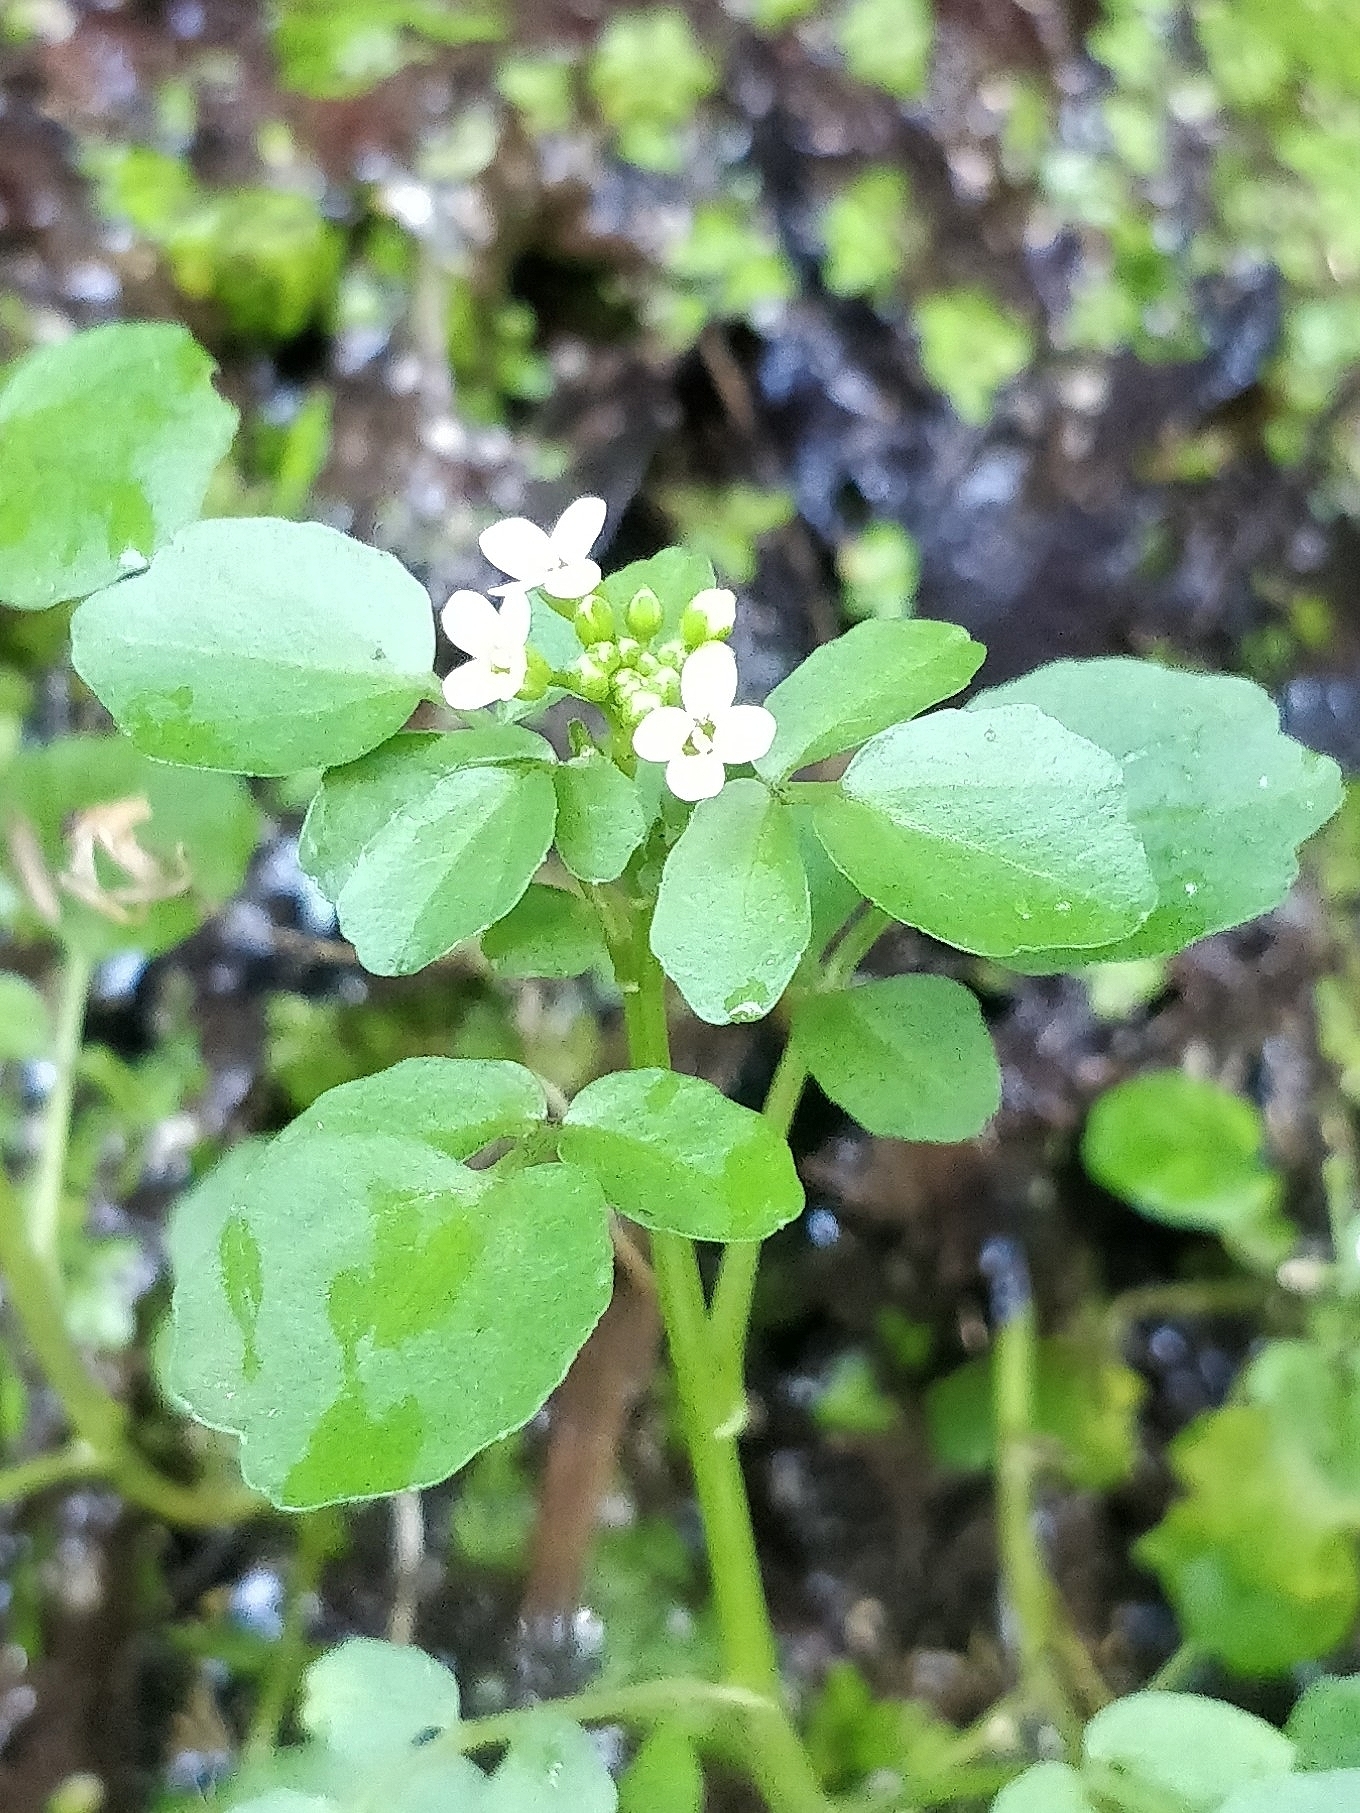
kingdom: Plantae
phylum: Tracheophyta
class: Magnoliopsida
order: Brassicales
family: Brassicaceae
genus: Nasturtium
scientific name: Nasturtium sterile
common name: Yellowcress
